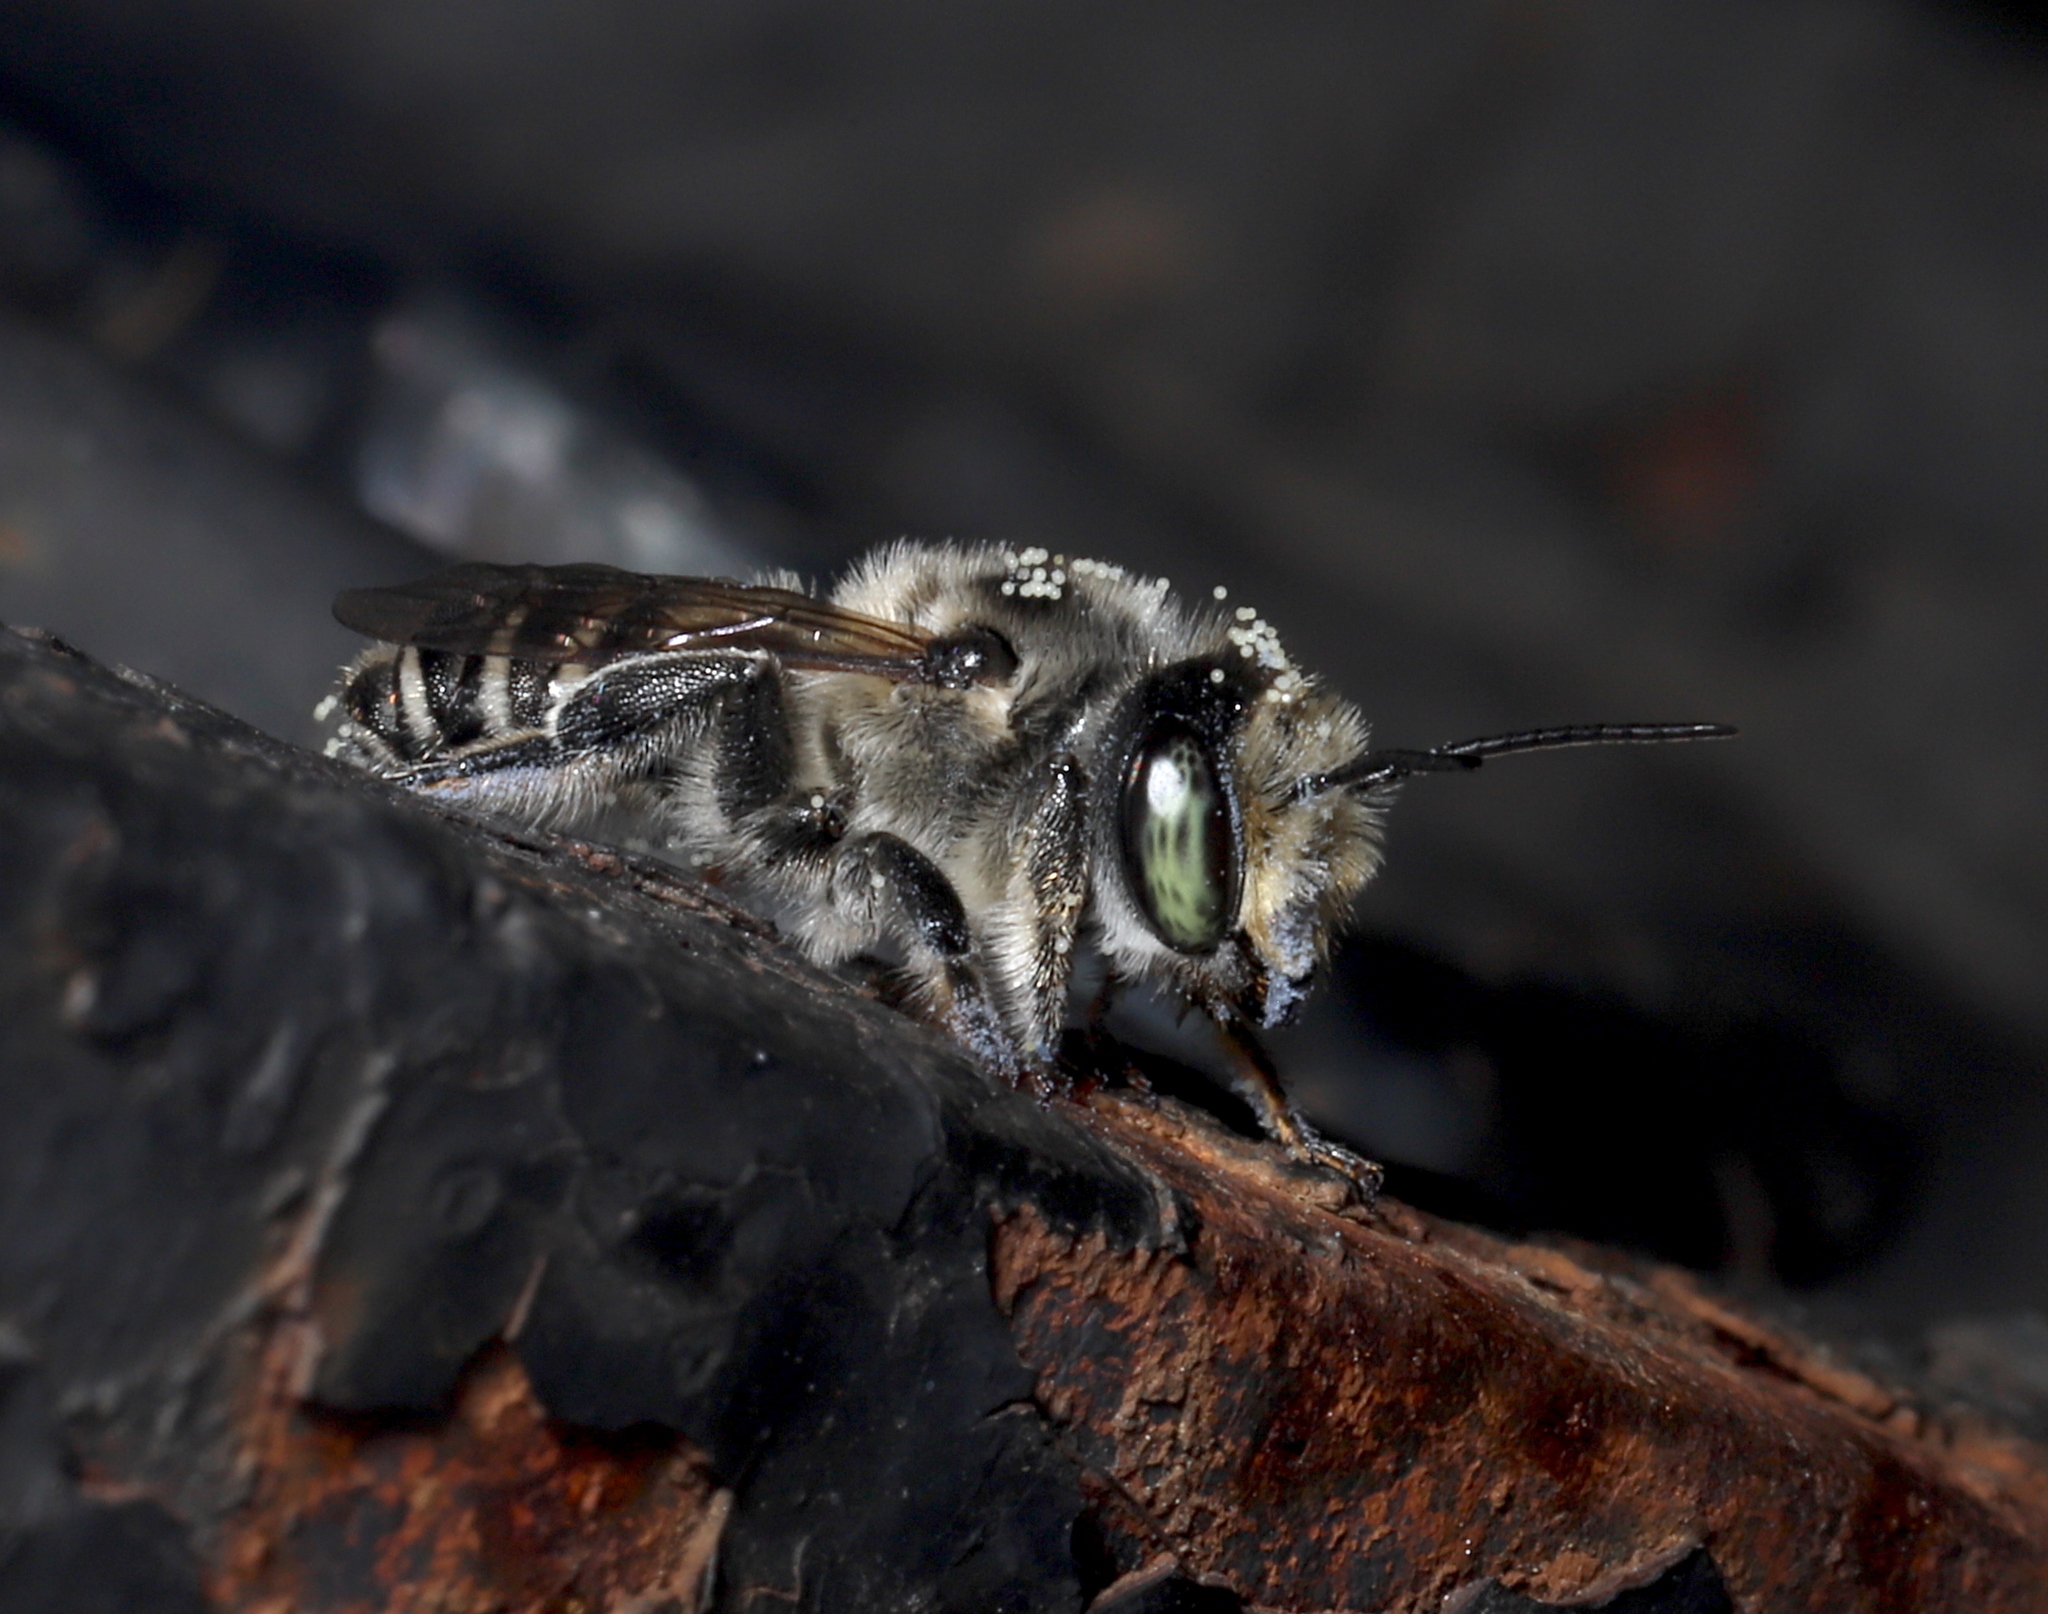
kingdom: Animalia
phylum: Arthropoda
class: Insecta
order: Hymenoptera
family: Megachilidae
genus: Megachile
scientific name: Megachile
